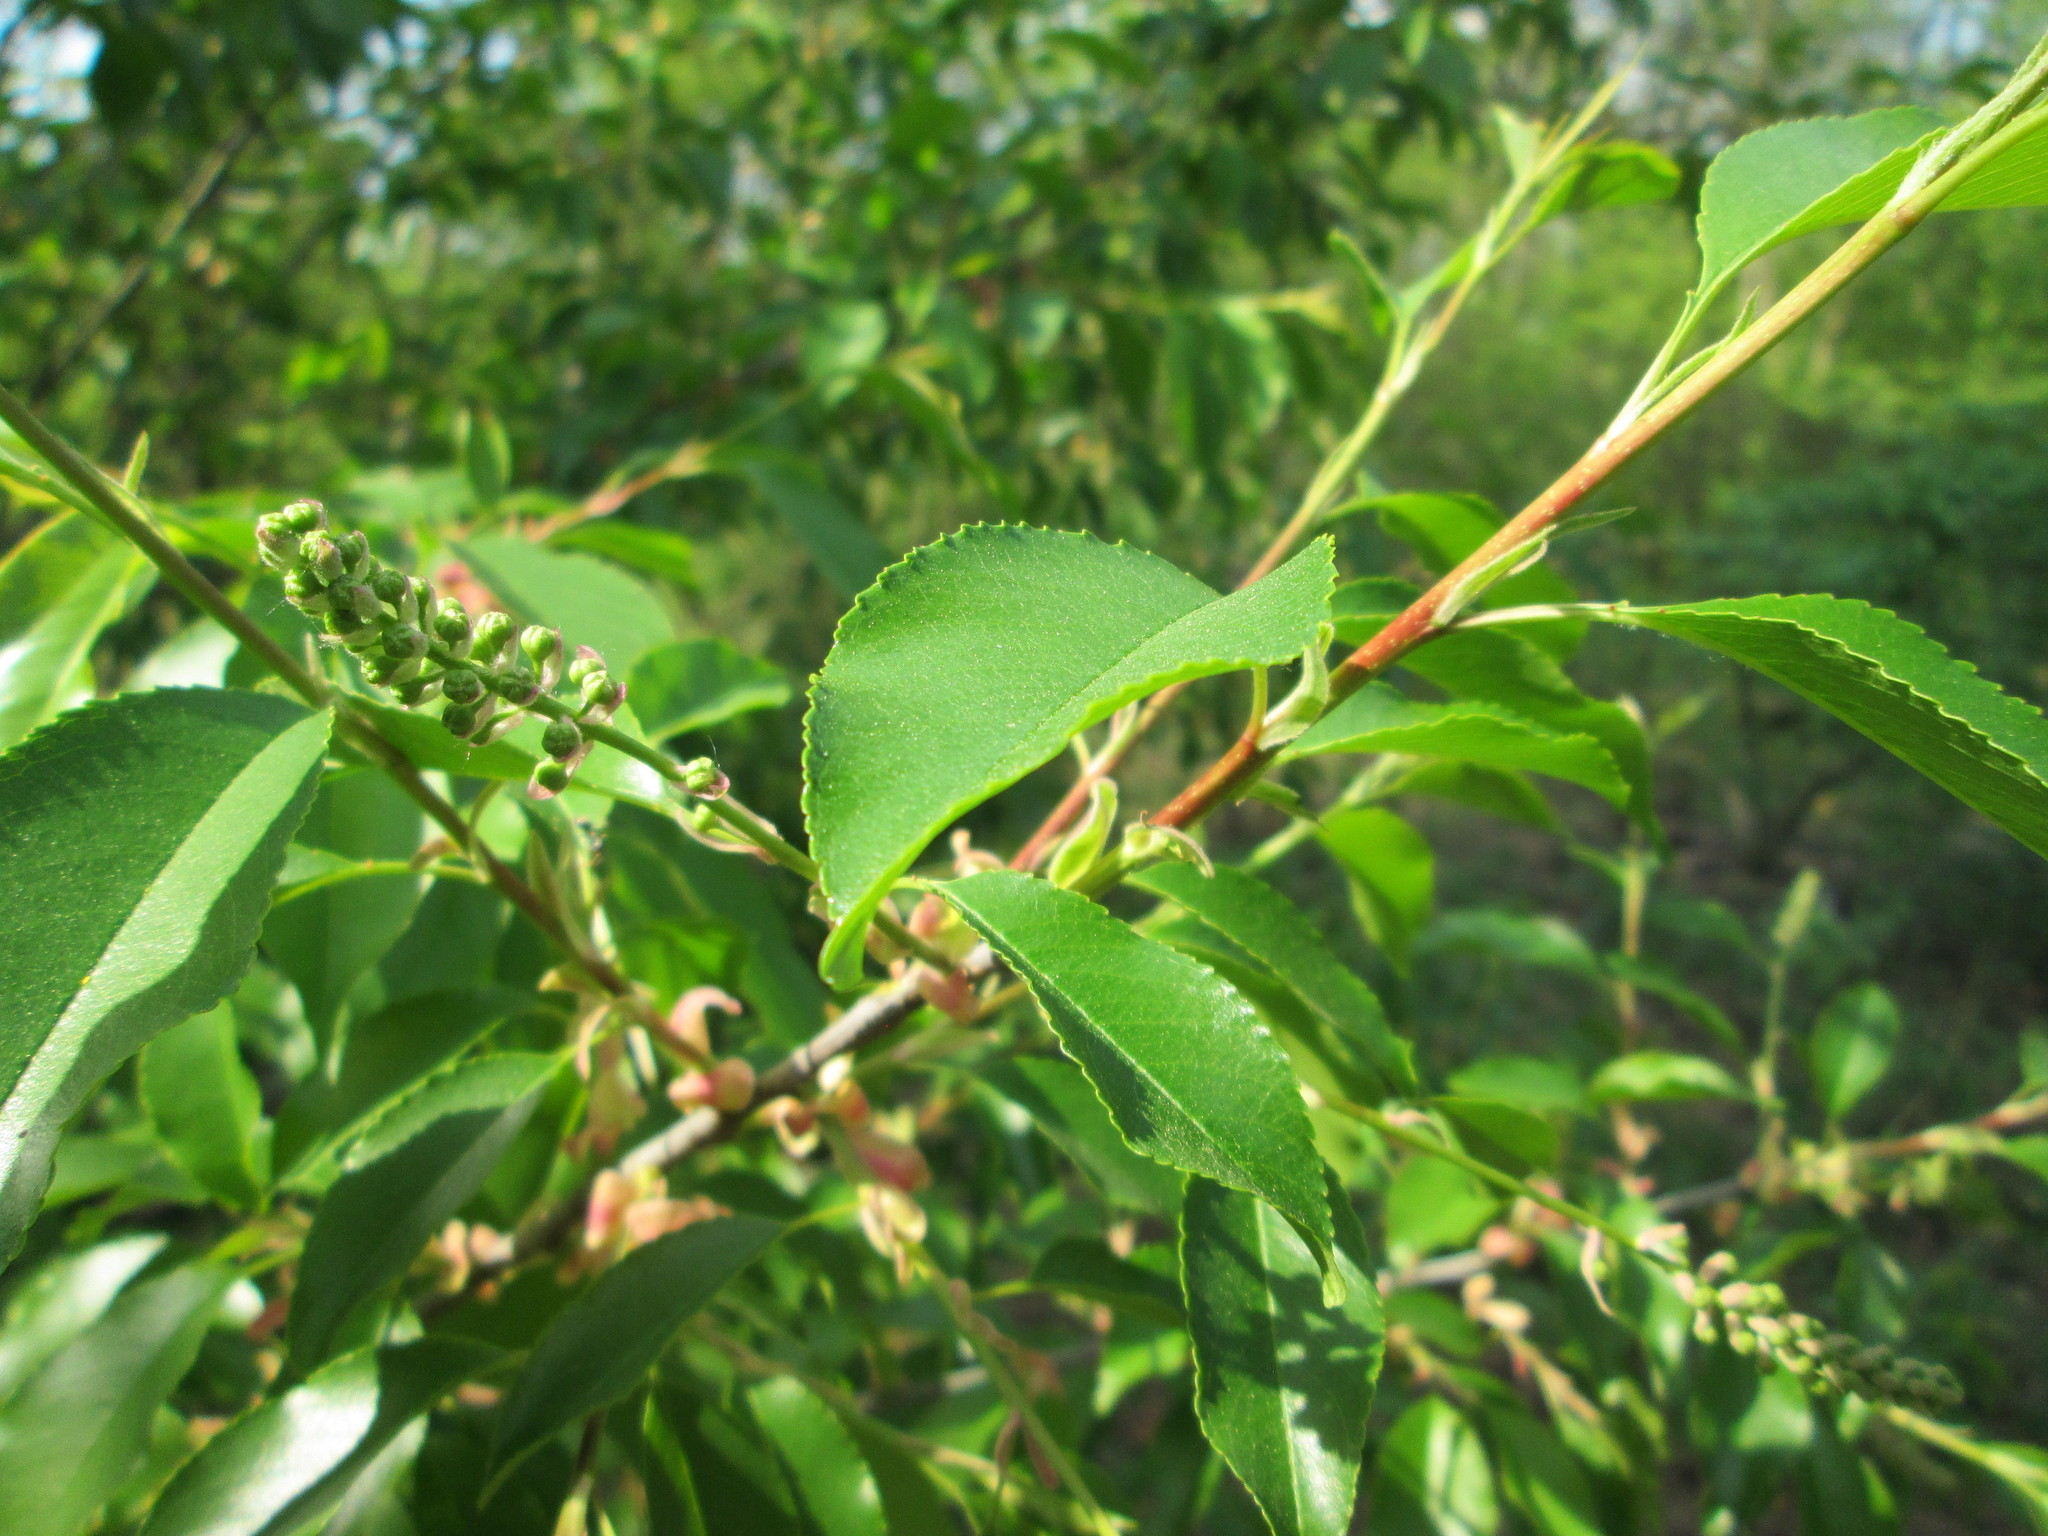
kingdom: Plantae
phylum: Tracheophyta
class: Magnoliopsida
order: Rosales
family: Rosaceae
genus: Prunus
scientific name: Prunus serotina
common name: Black cherry
